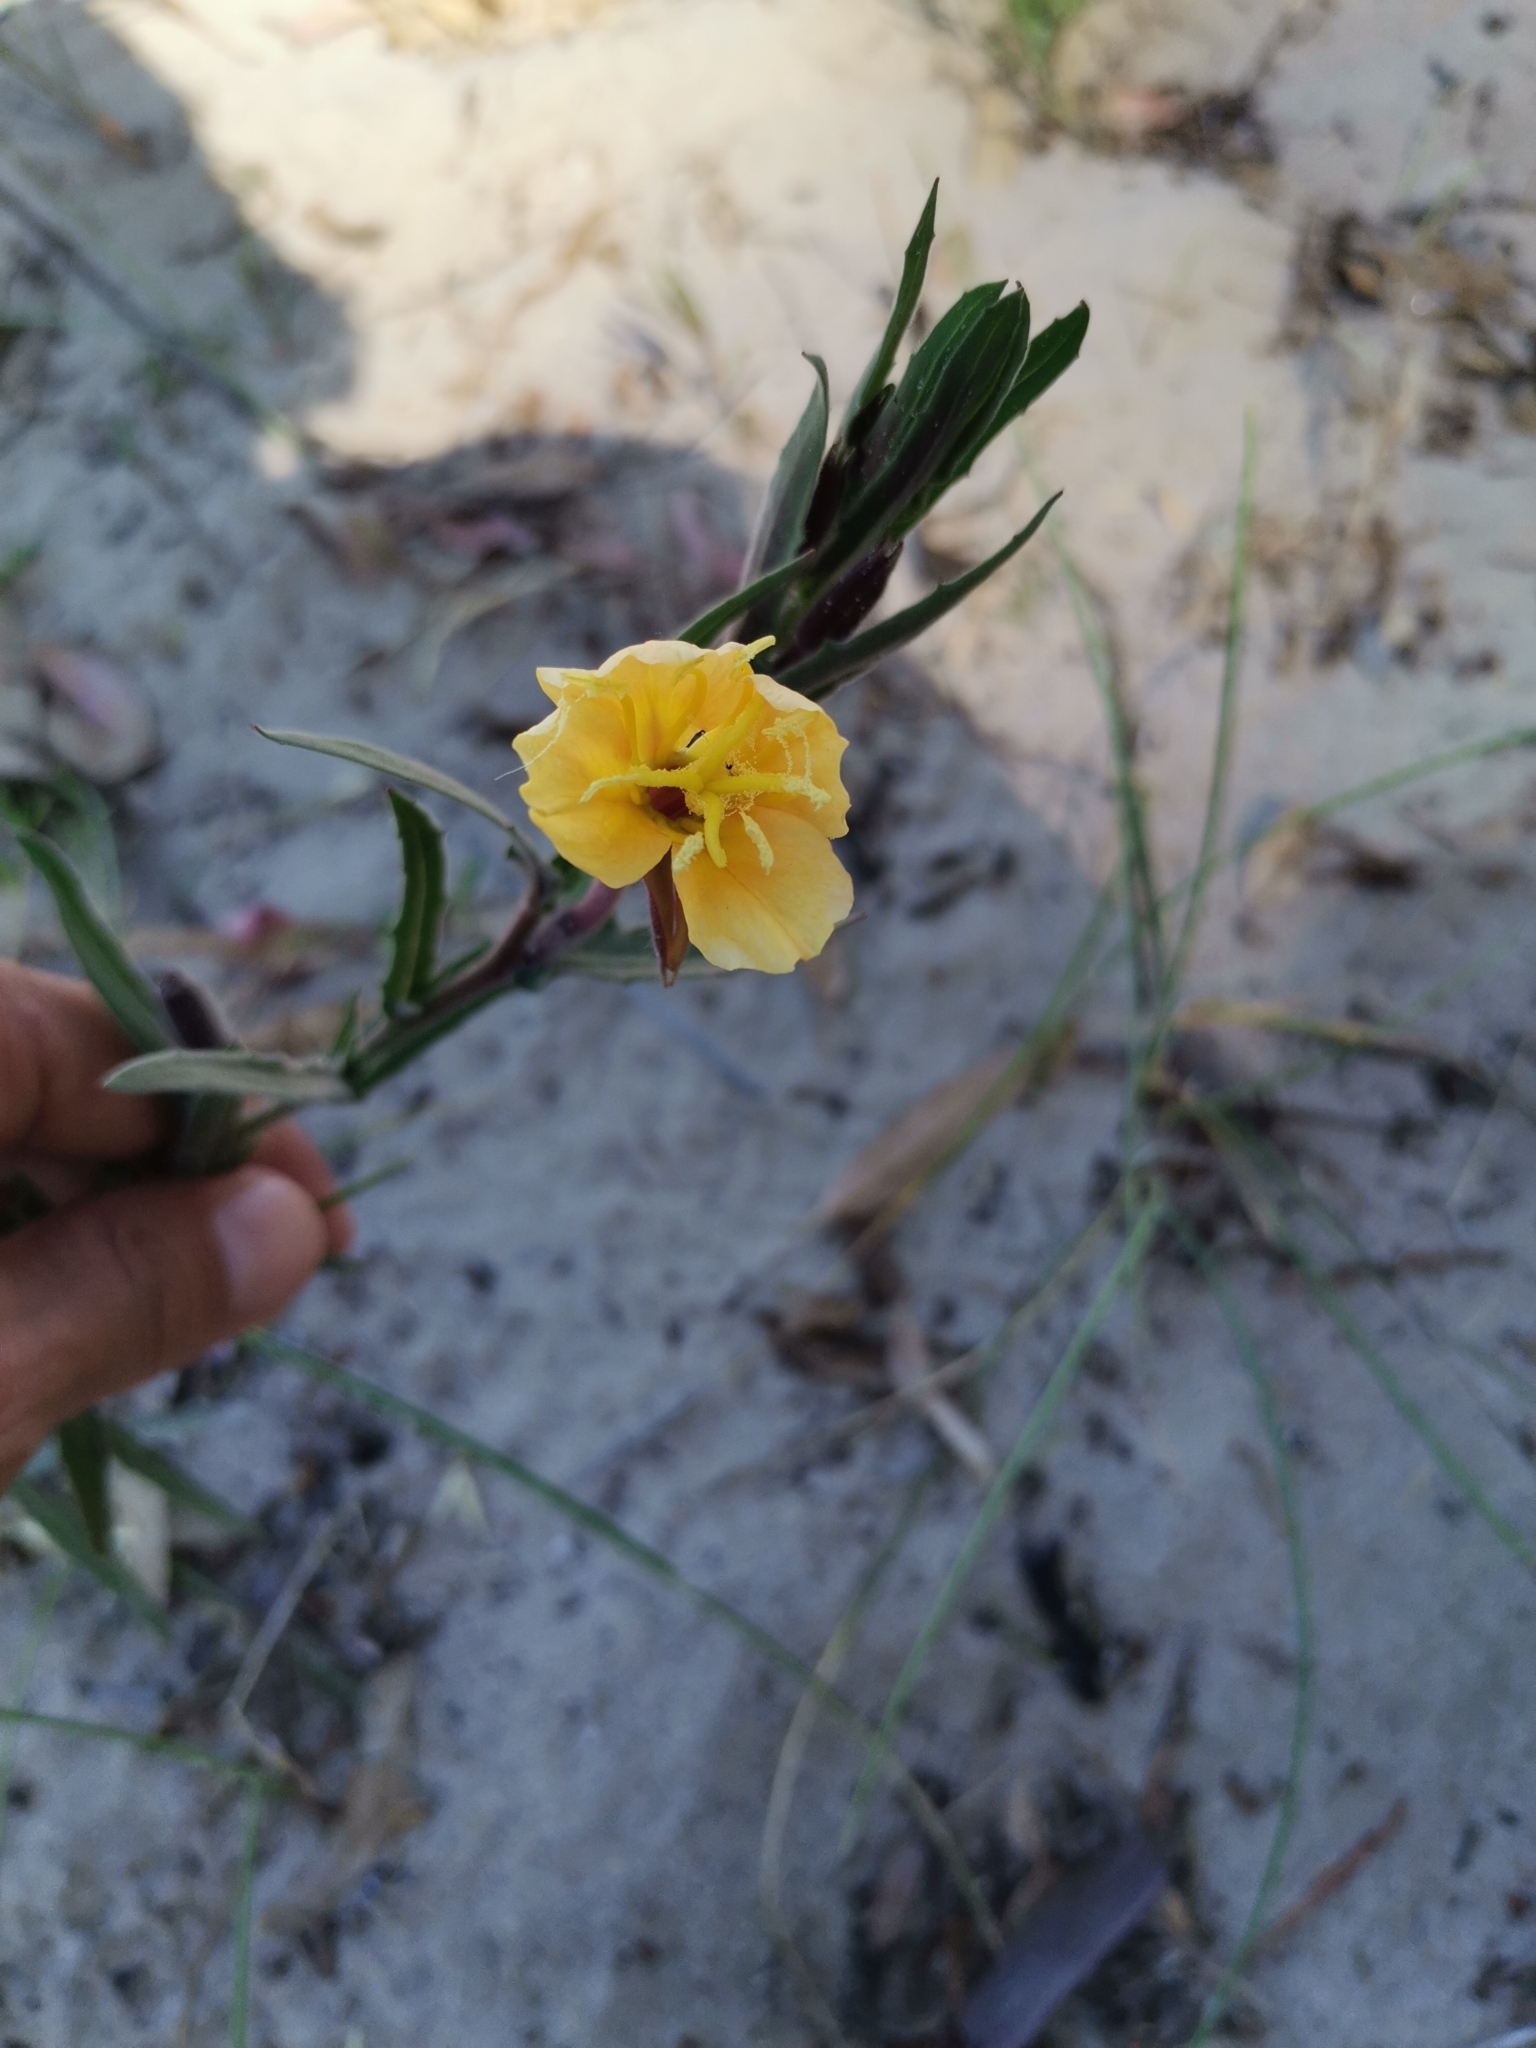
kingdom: Plantae
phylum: Tracheophyta
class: Magnoliopsida
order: Myrtales
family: Onagraceae
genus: Oenothera
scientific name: Oenothera mollissima
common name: Argentine evening primrose
